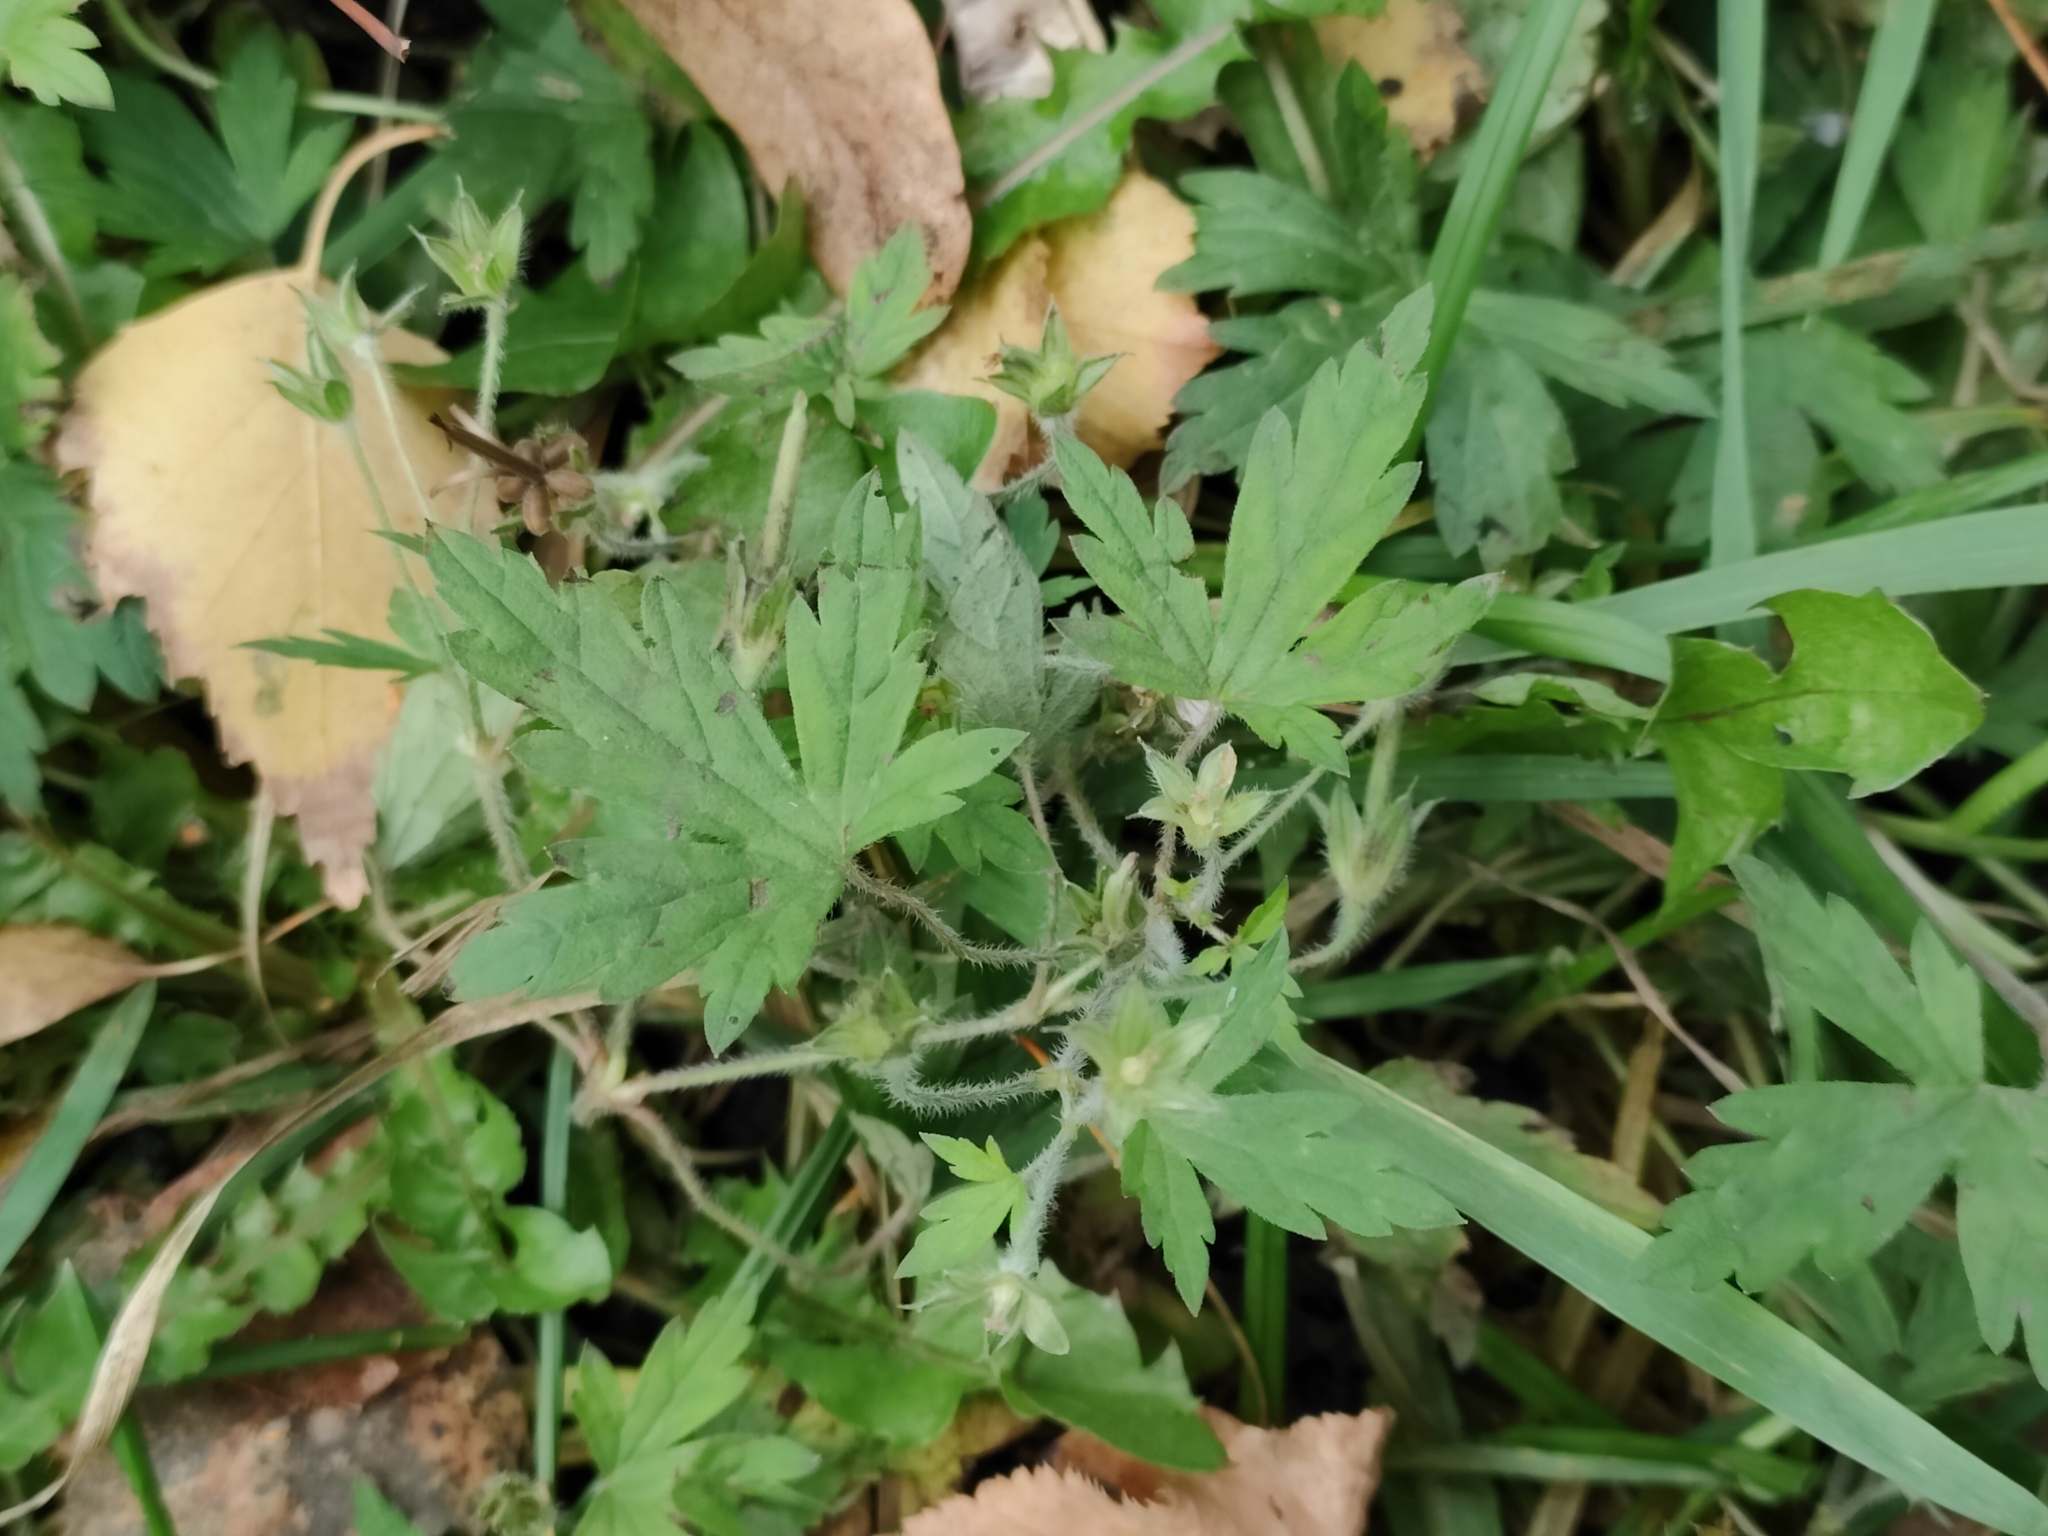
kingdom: Plantae
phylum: Tracheophyta
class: Magnoliopsida
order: Geraniales
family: Geraniaceae
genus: Geranium
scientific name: Geranium sibiricum
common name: Siberian crane's-bill
